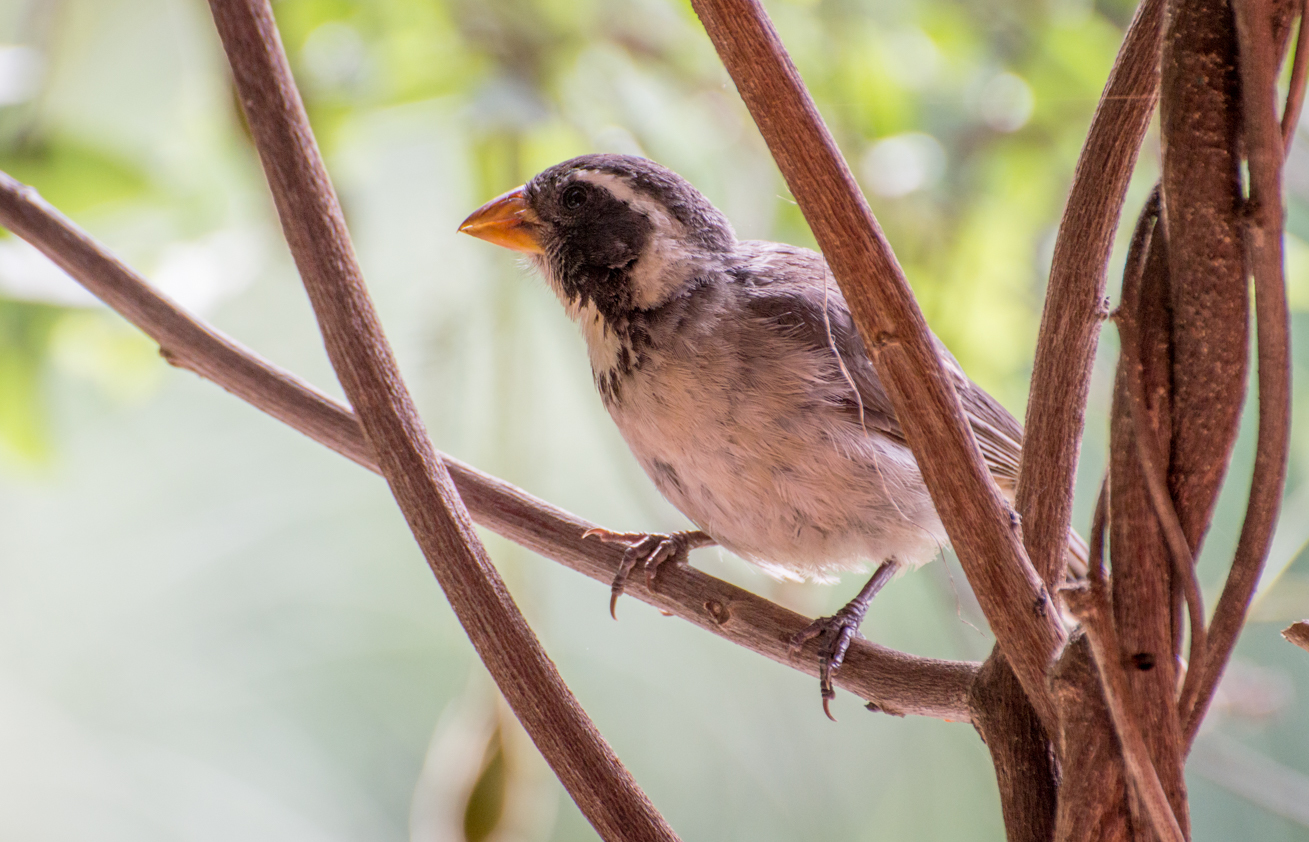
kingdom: Animalia
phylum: Chordata
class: Aves
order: Passeriformes
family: Thraupidae
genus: Saltator
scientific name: Saltator aurantiirostris
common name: Golden-billed saltator
